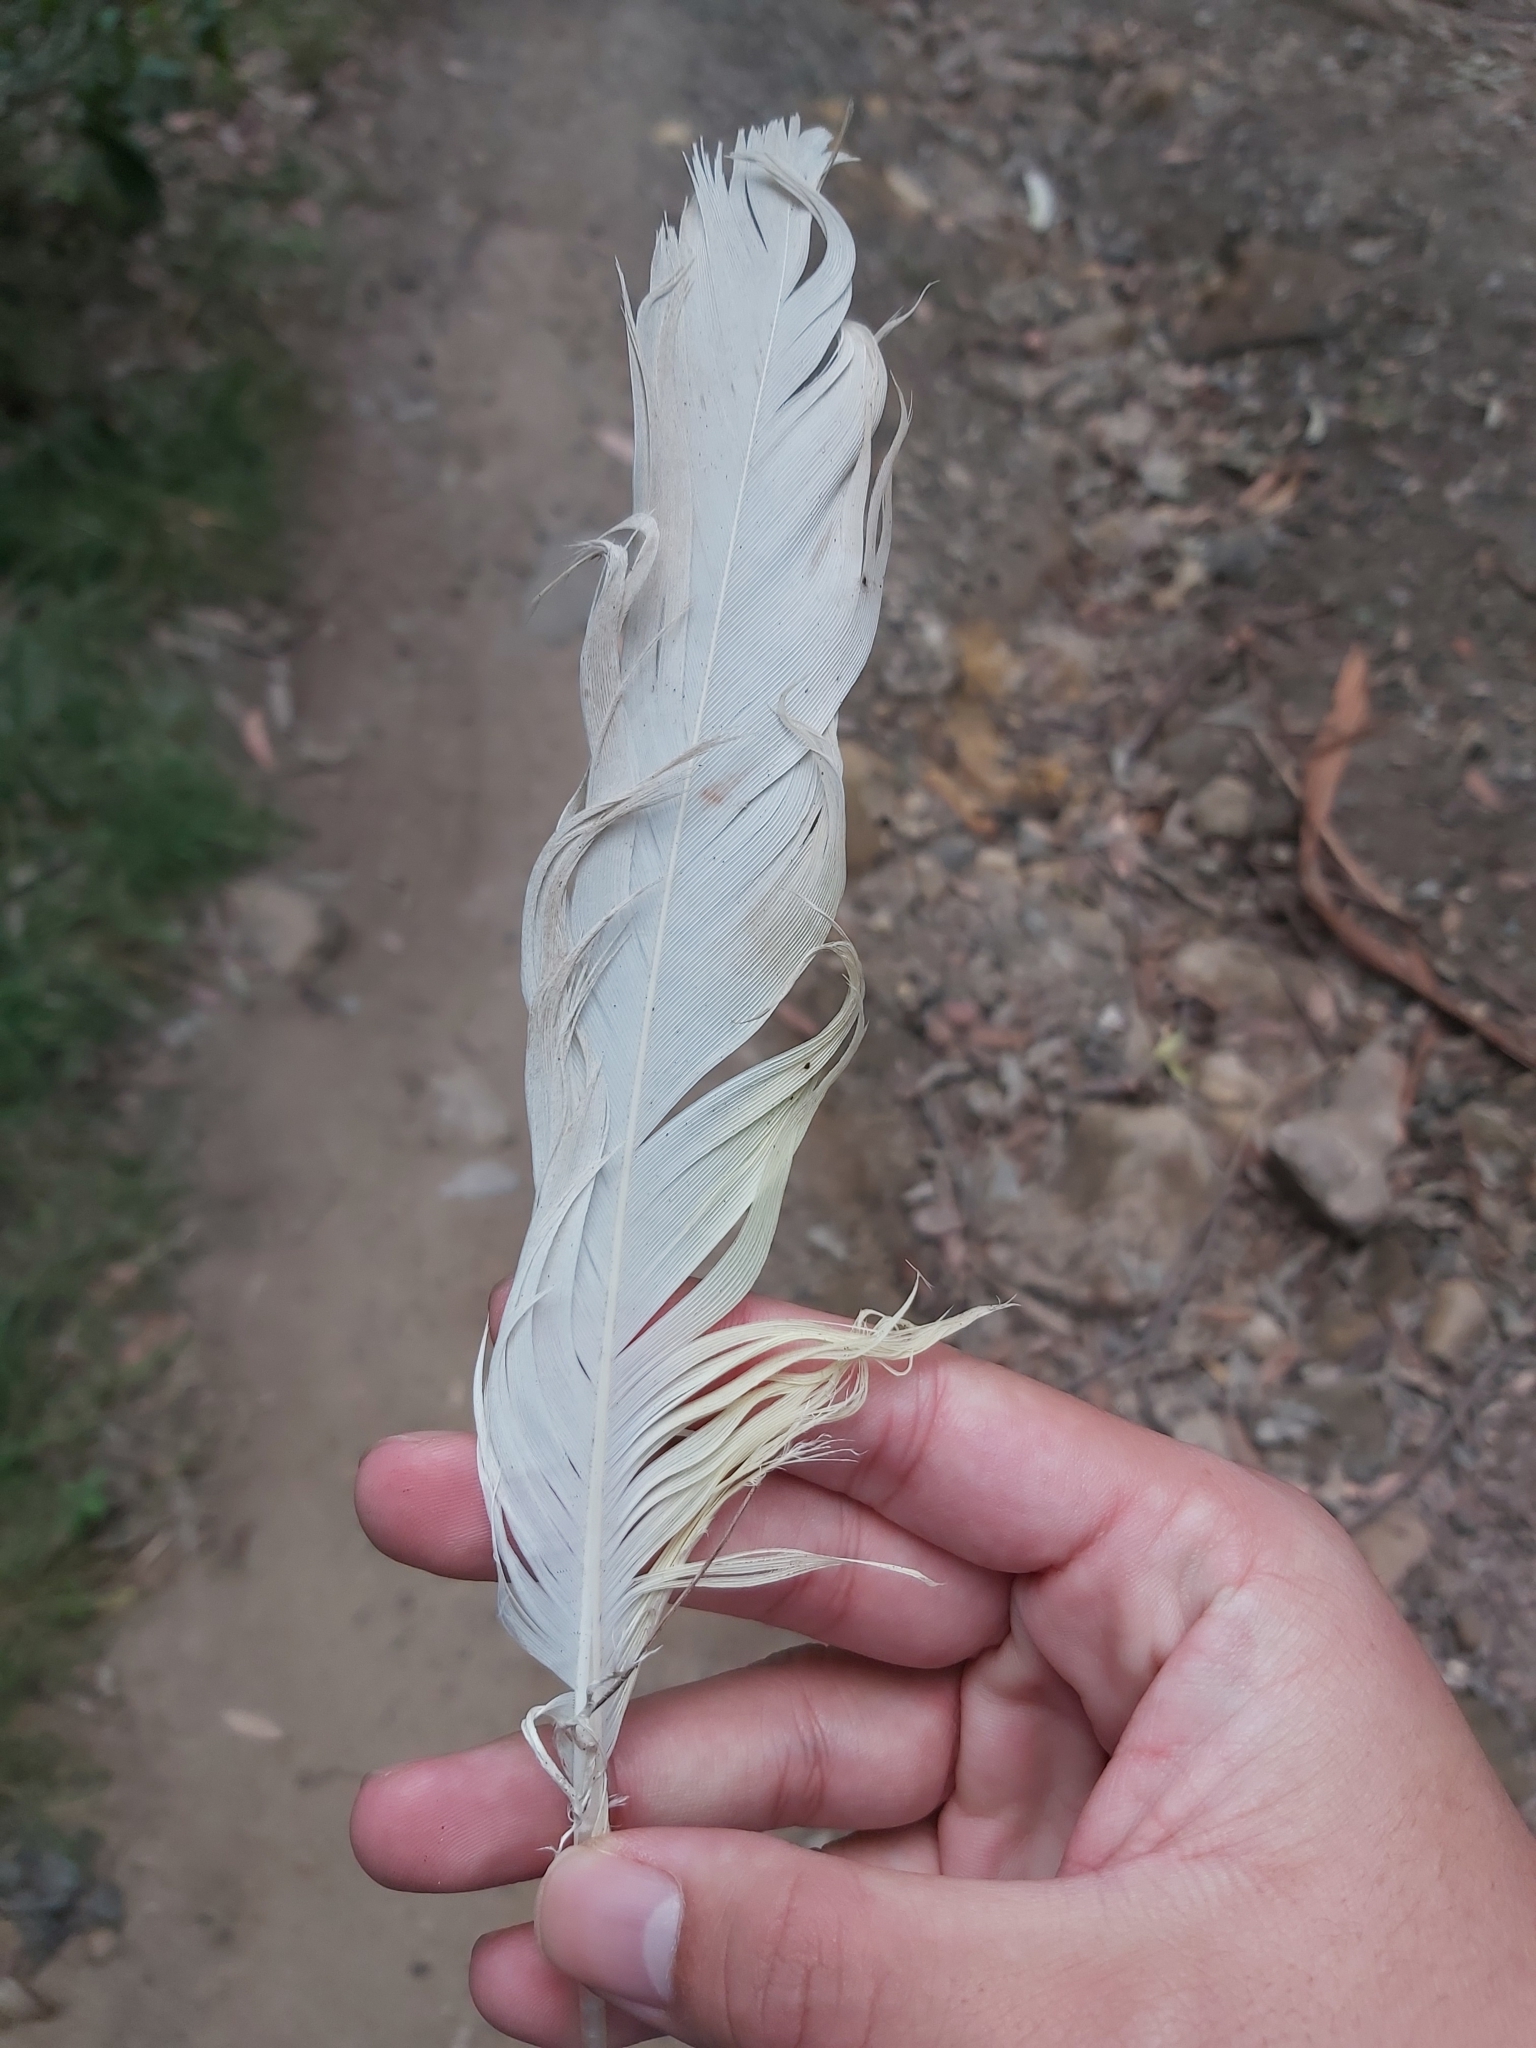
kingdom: Animalia
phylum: Chordata
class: Aves
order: Psittaciformes
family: Psittacidae
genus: Cacatua
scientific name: Cacatua galerita
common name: Sulphur-crested cockatoo
